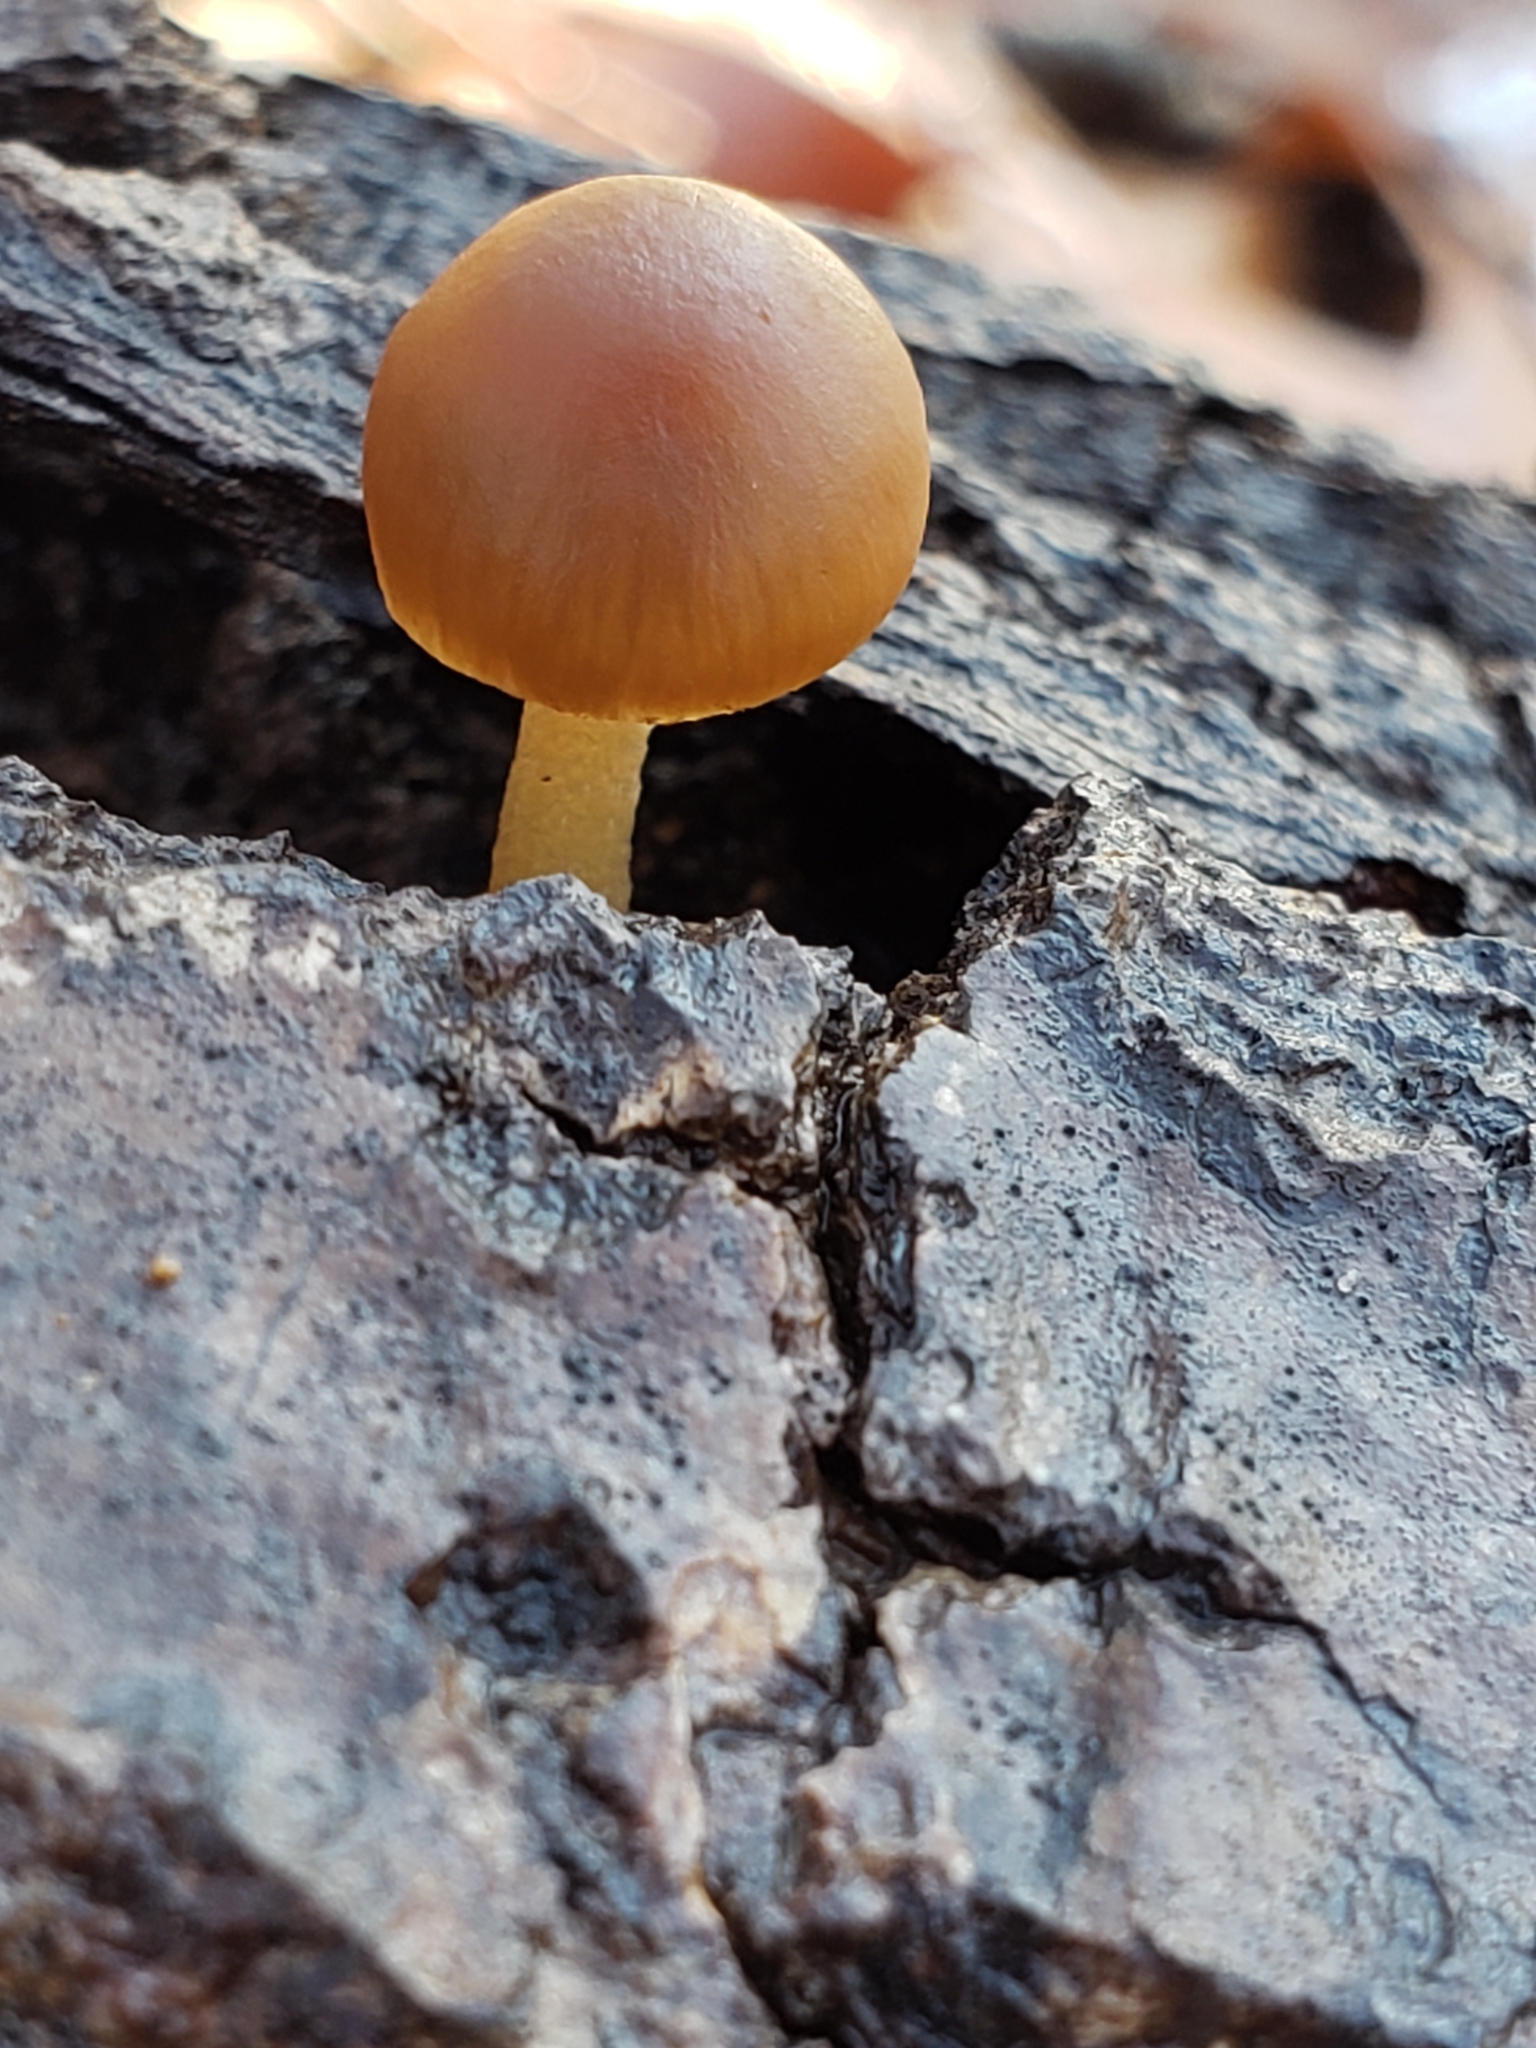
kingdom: Fungi
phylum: Basidiomycota
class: Agaricomycetes
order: Agaricales
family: Hymenogastraceae
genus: Galerina
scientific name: Galerina marginata
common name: Funeral bell
